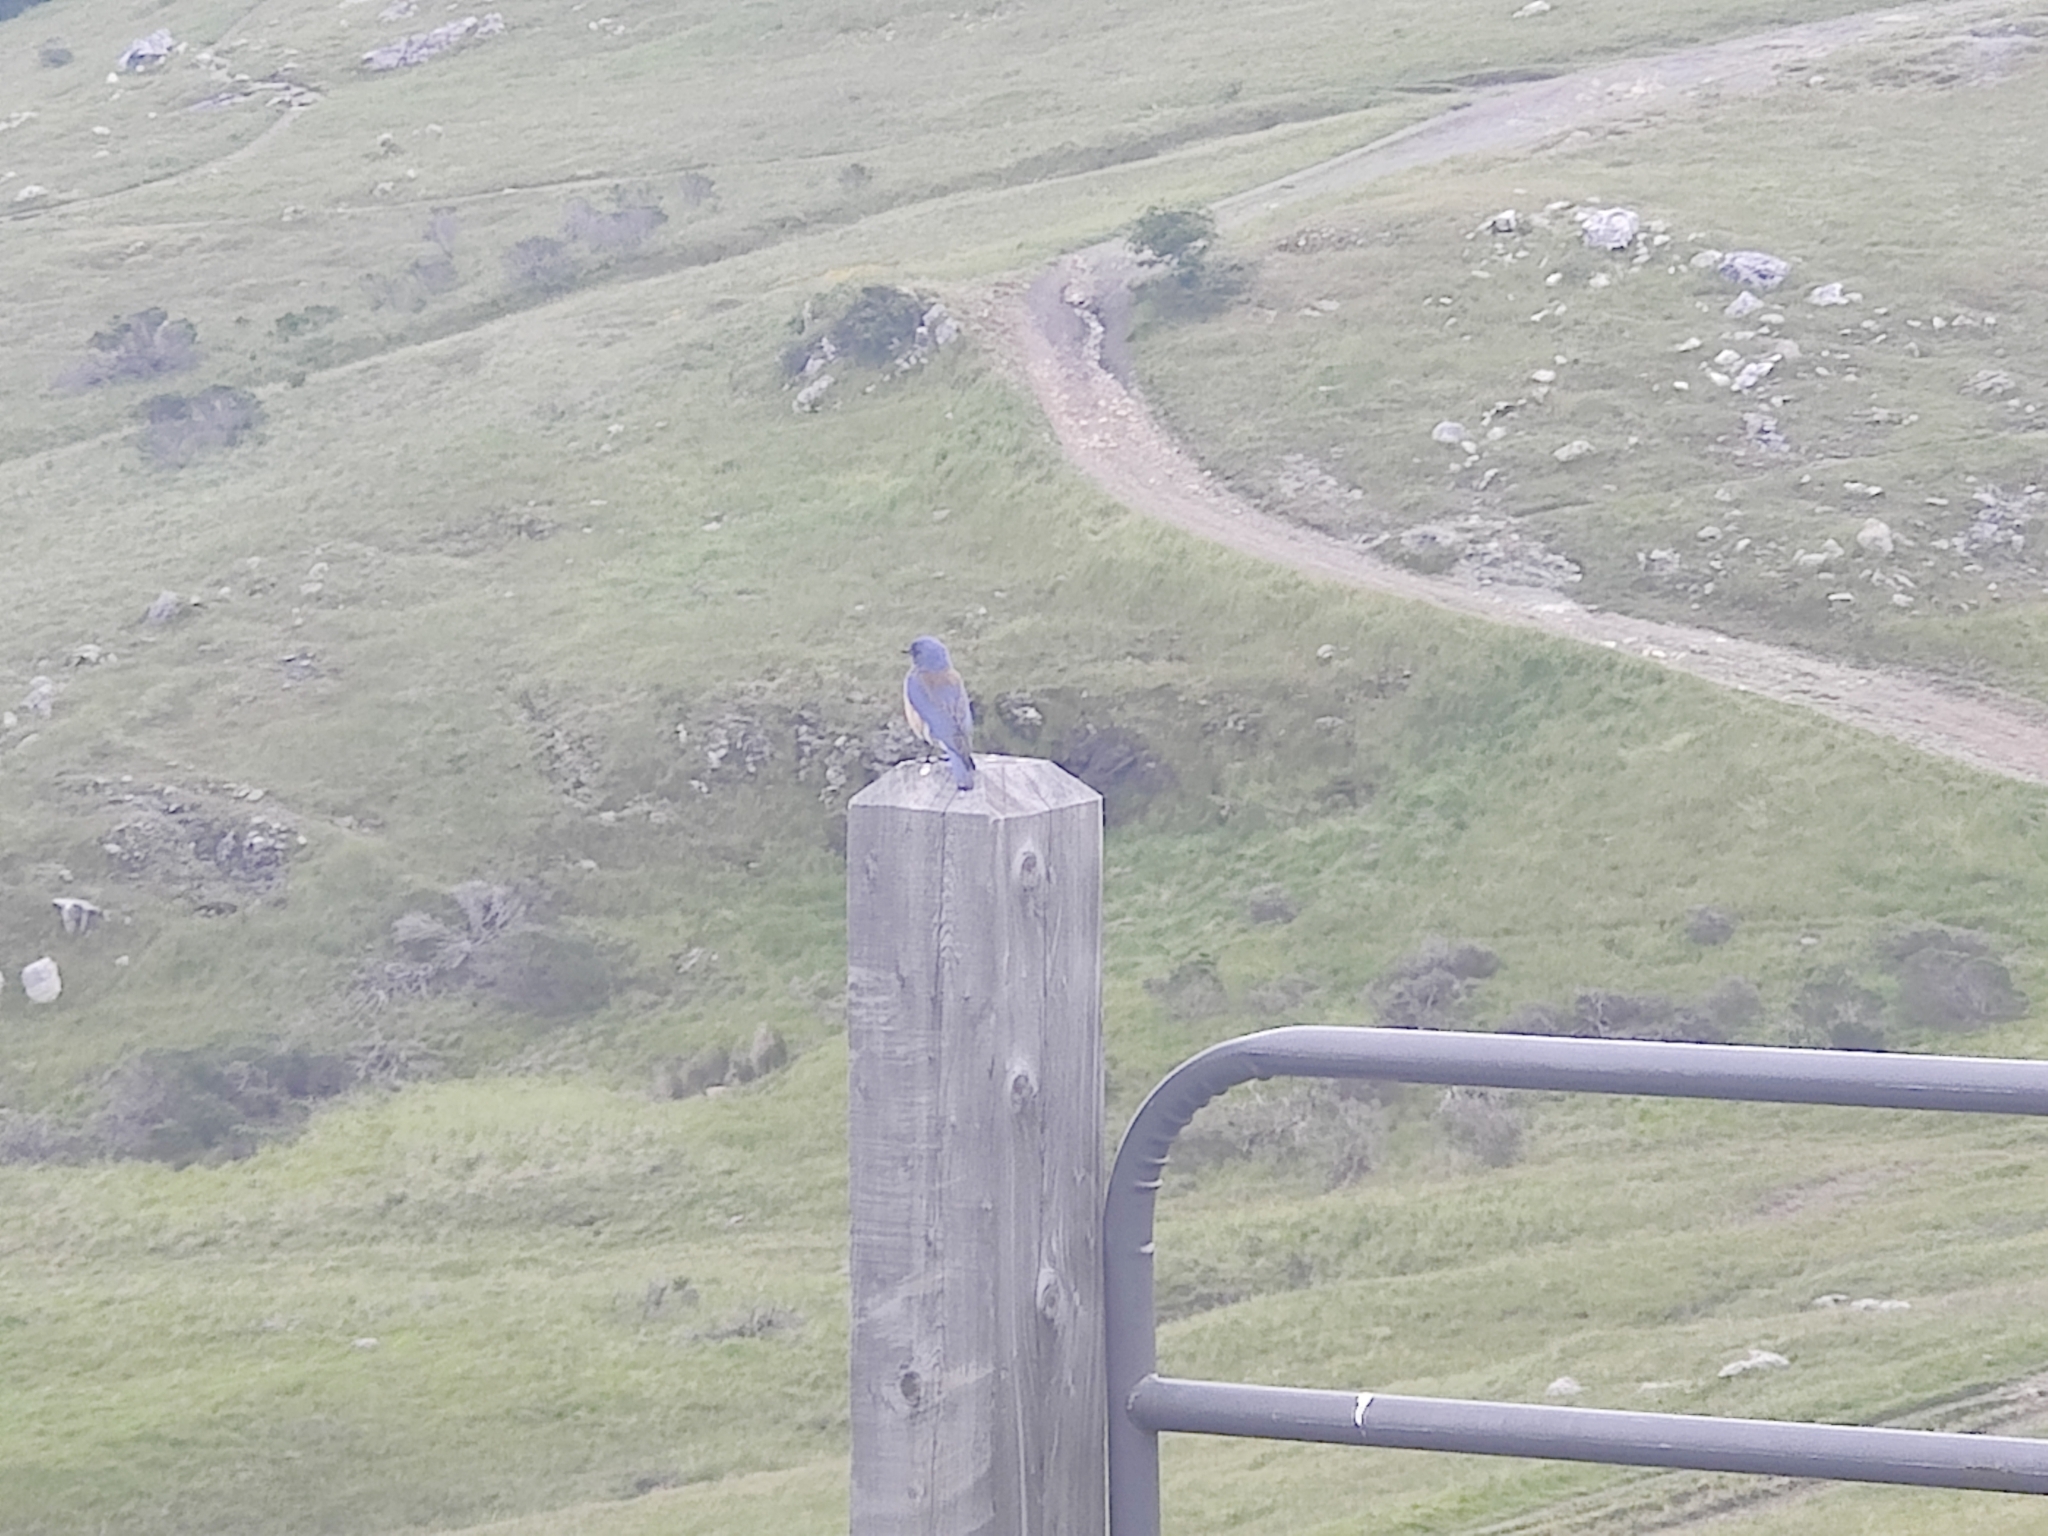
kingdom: Animalia
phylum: Chordata
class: Aves
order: Passeriformes
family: Turdidae
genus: Sialia
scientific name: Sialia mexicana
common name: Western bluebird
